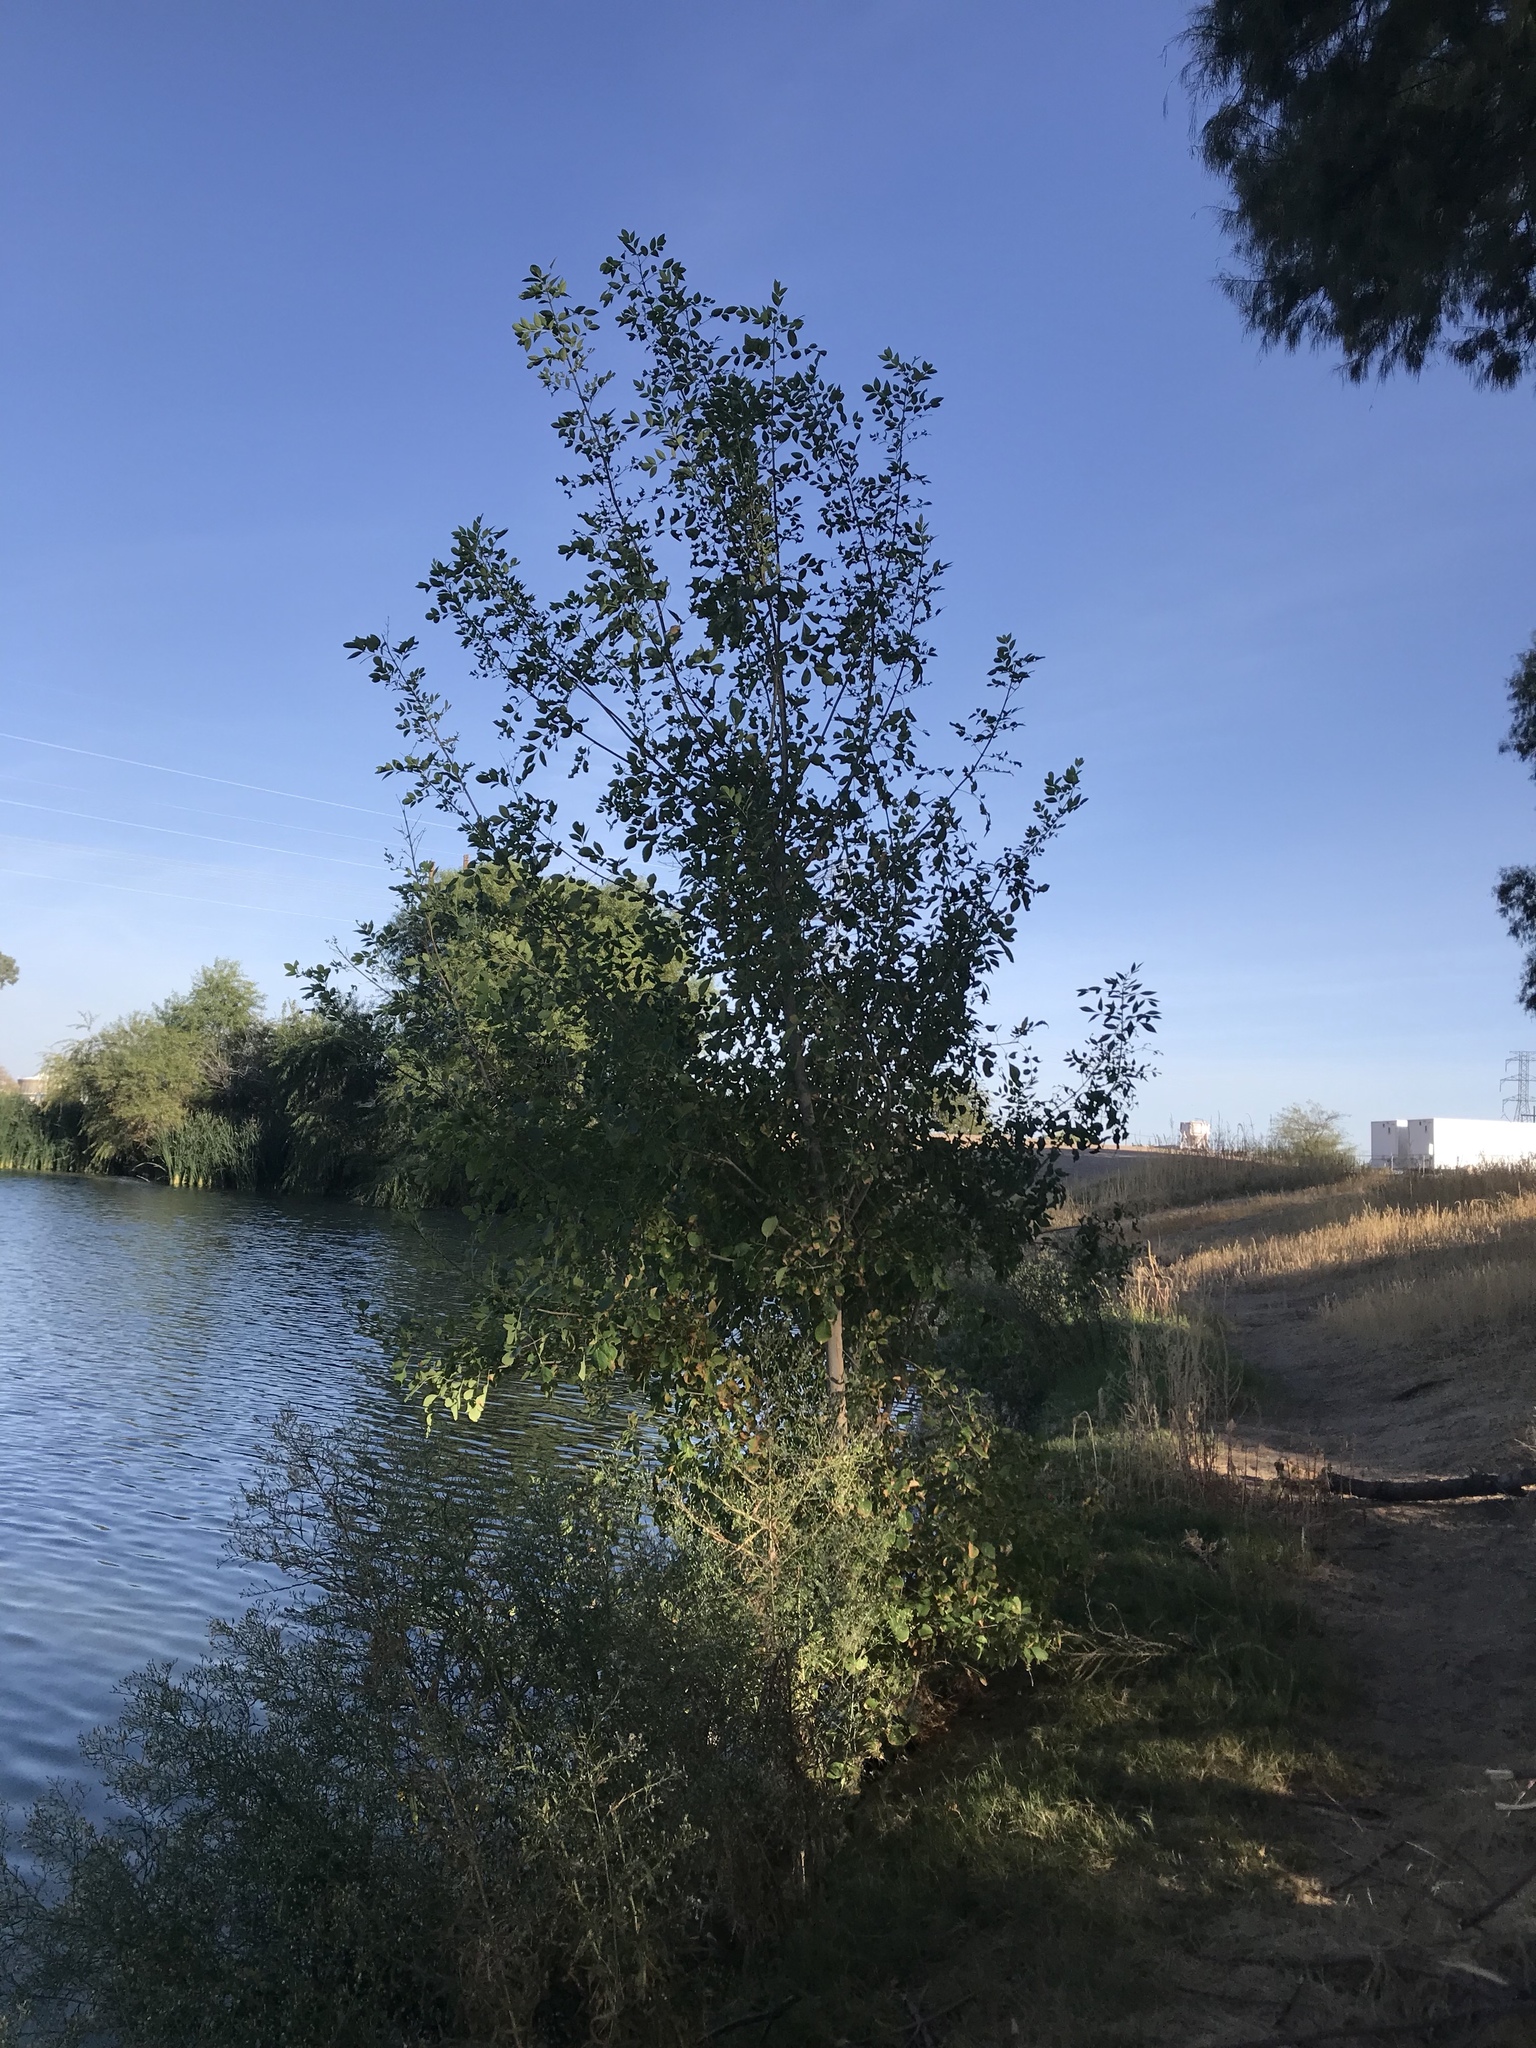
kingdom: Plantae
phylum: Tracheophyta
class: Magnoliopsida
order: Lamiales
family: Oleaceae
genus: Fraxinus
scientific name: Fraxinus velutina
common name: Arizon ash
